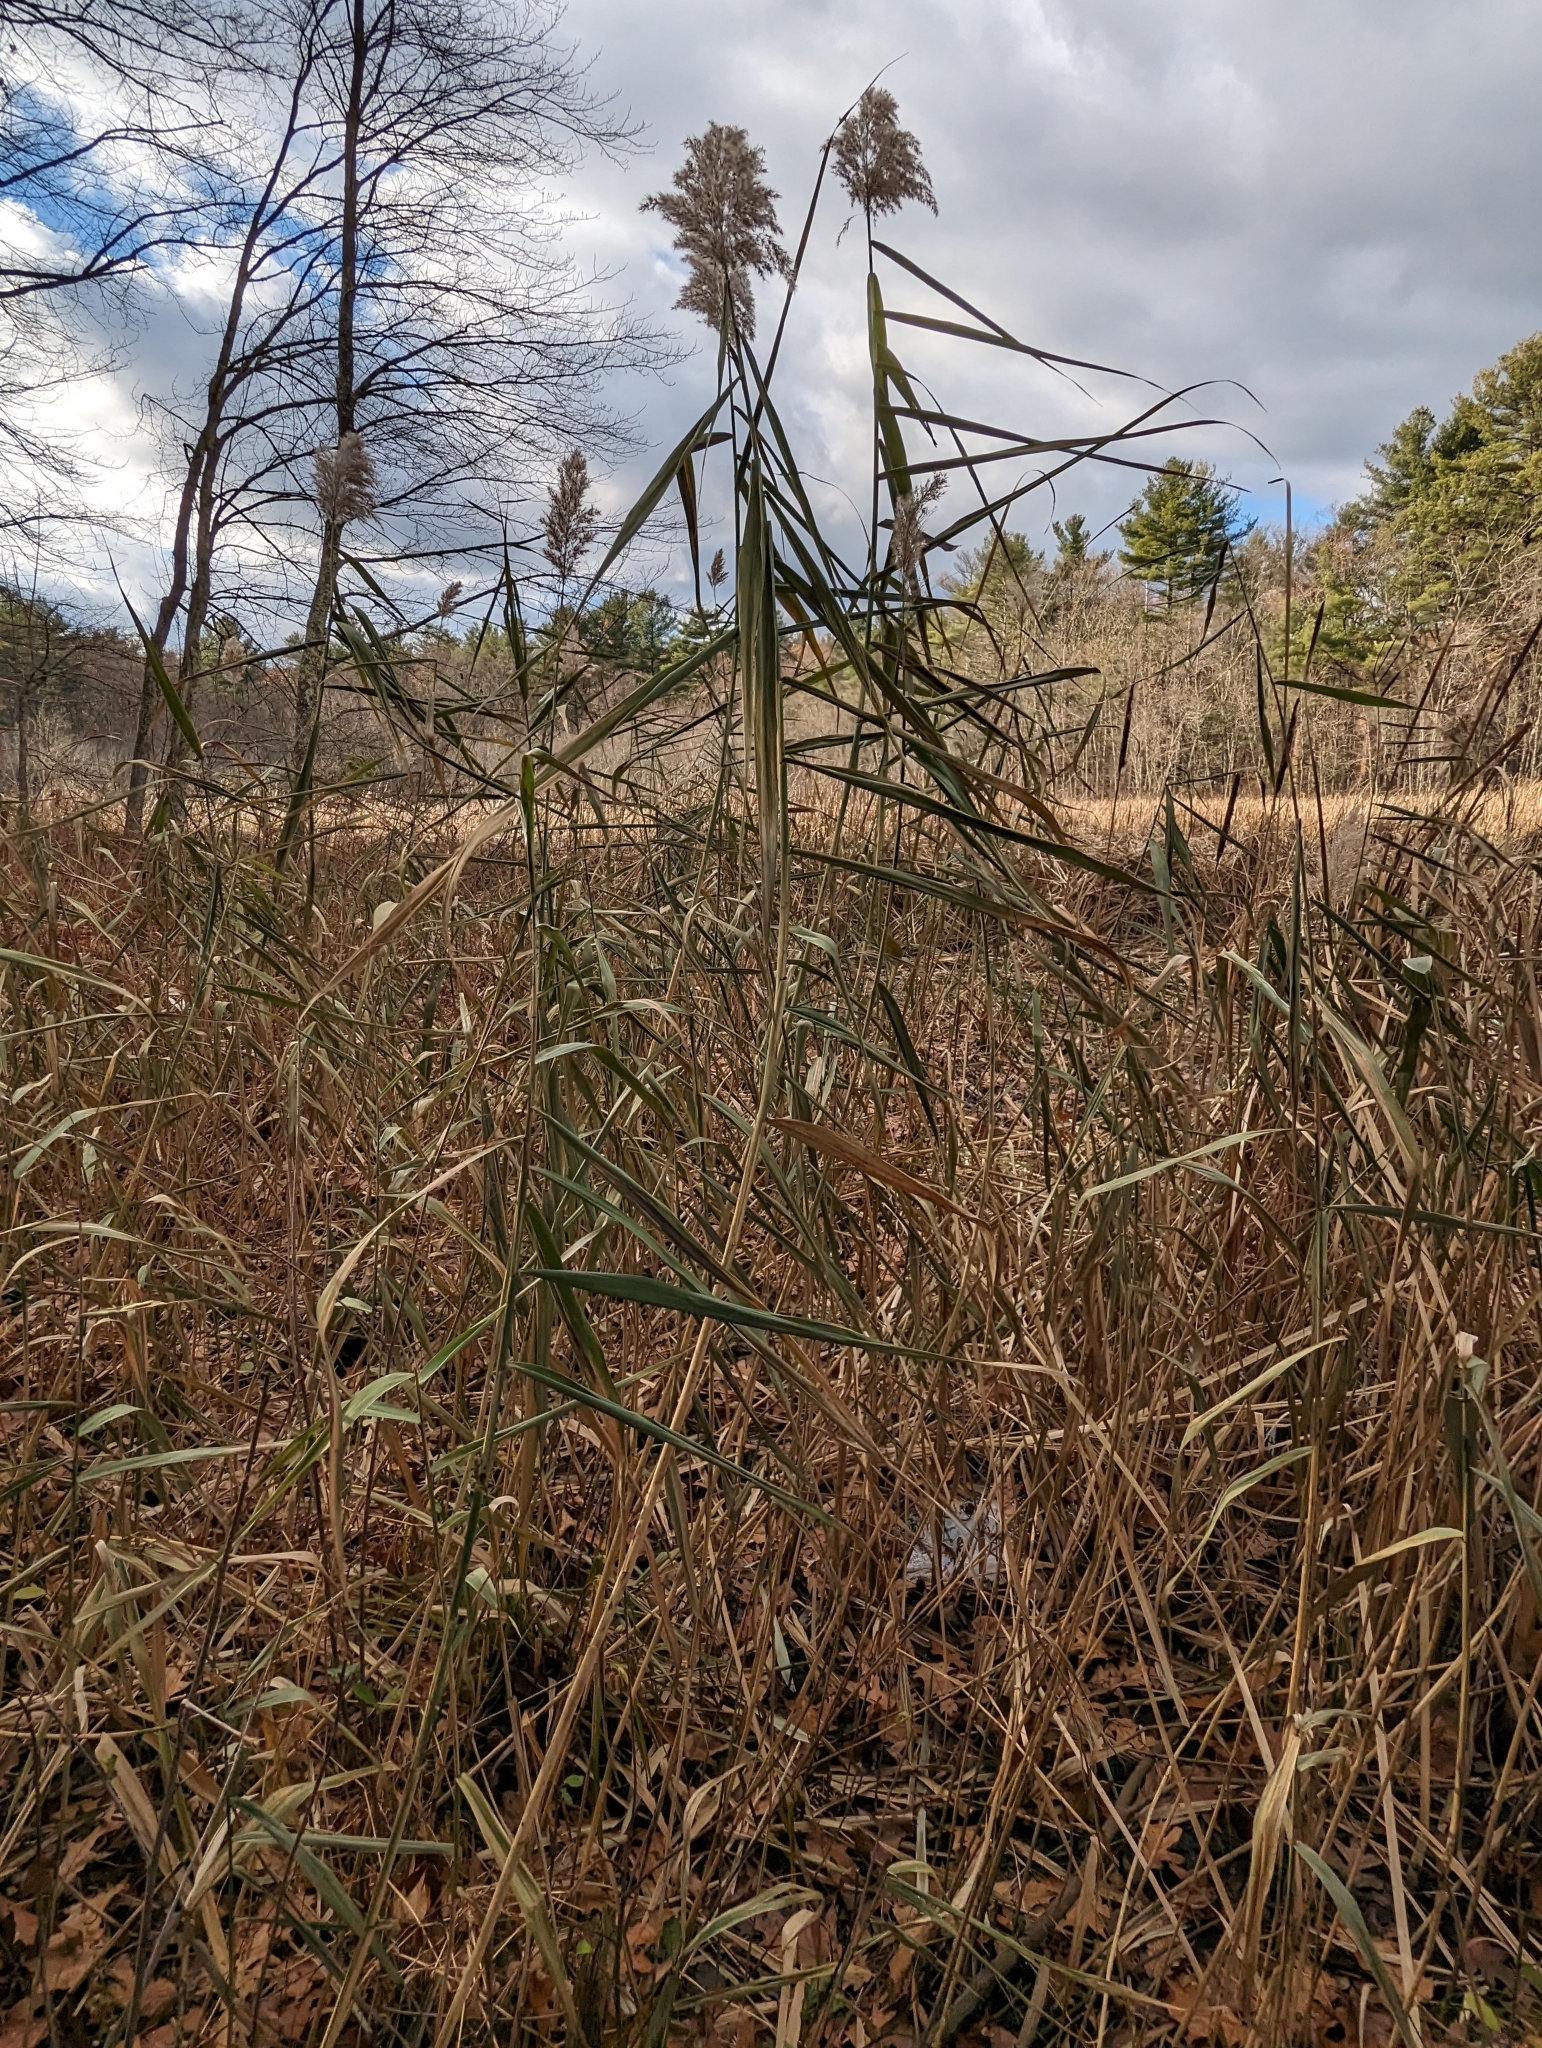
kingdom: Plantae
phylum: Tracheophyta
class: Liliopsida
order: Poales
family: Poaceae
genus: Phragmites
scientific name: Phragmites australis
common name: Common reed
